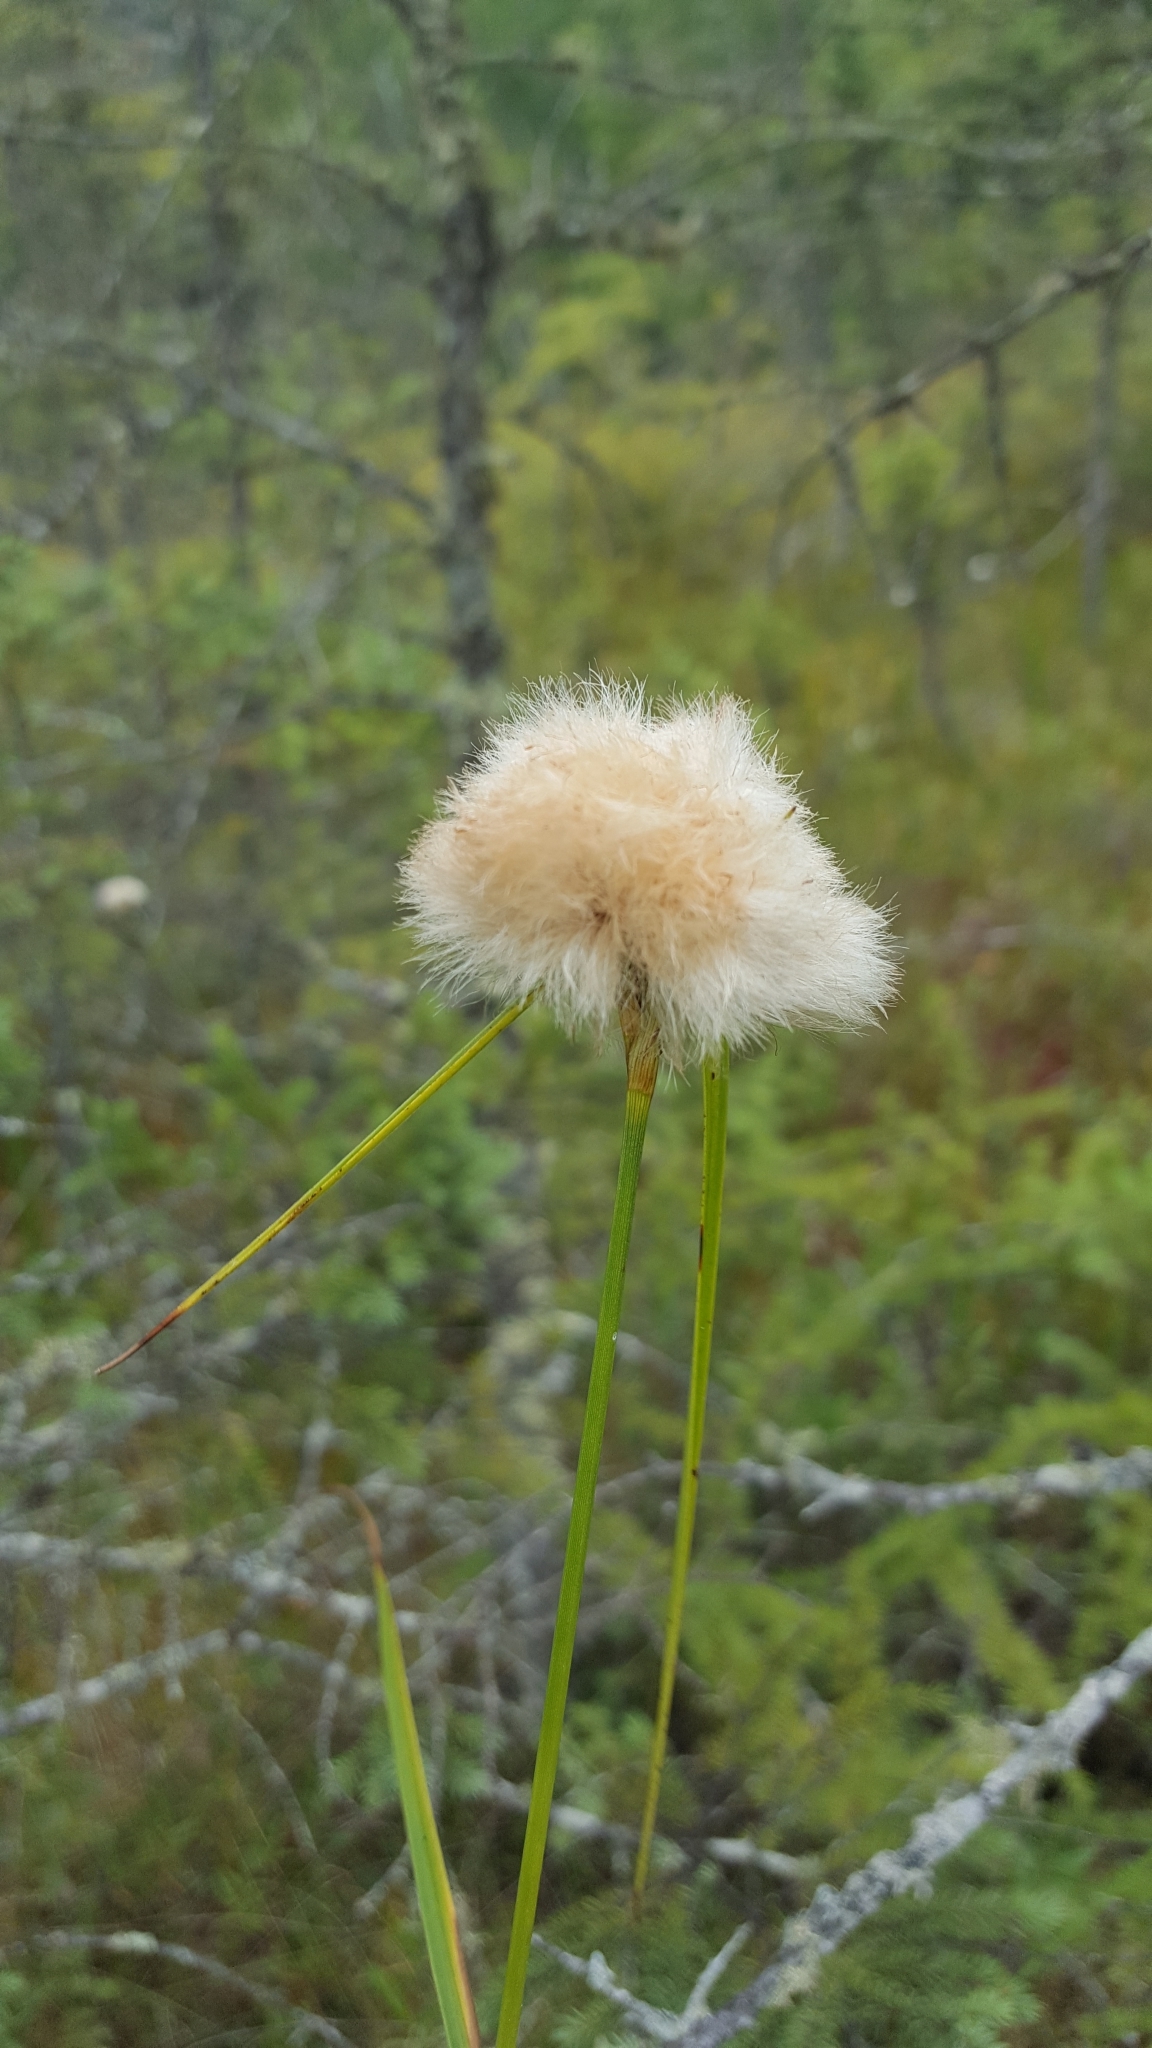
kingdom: Plantae
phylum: Tracheophyta
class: Liliopsida
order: Poales
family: Cyperaceae
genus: Eriophorum
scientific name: Eriophorum virginicum
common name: Tawny cottongrass
